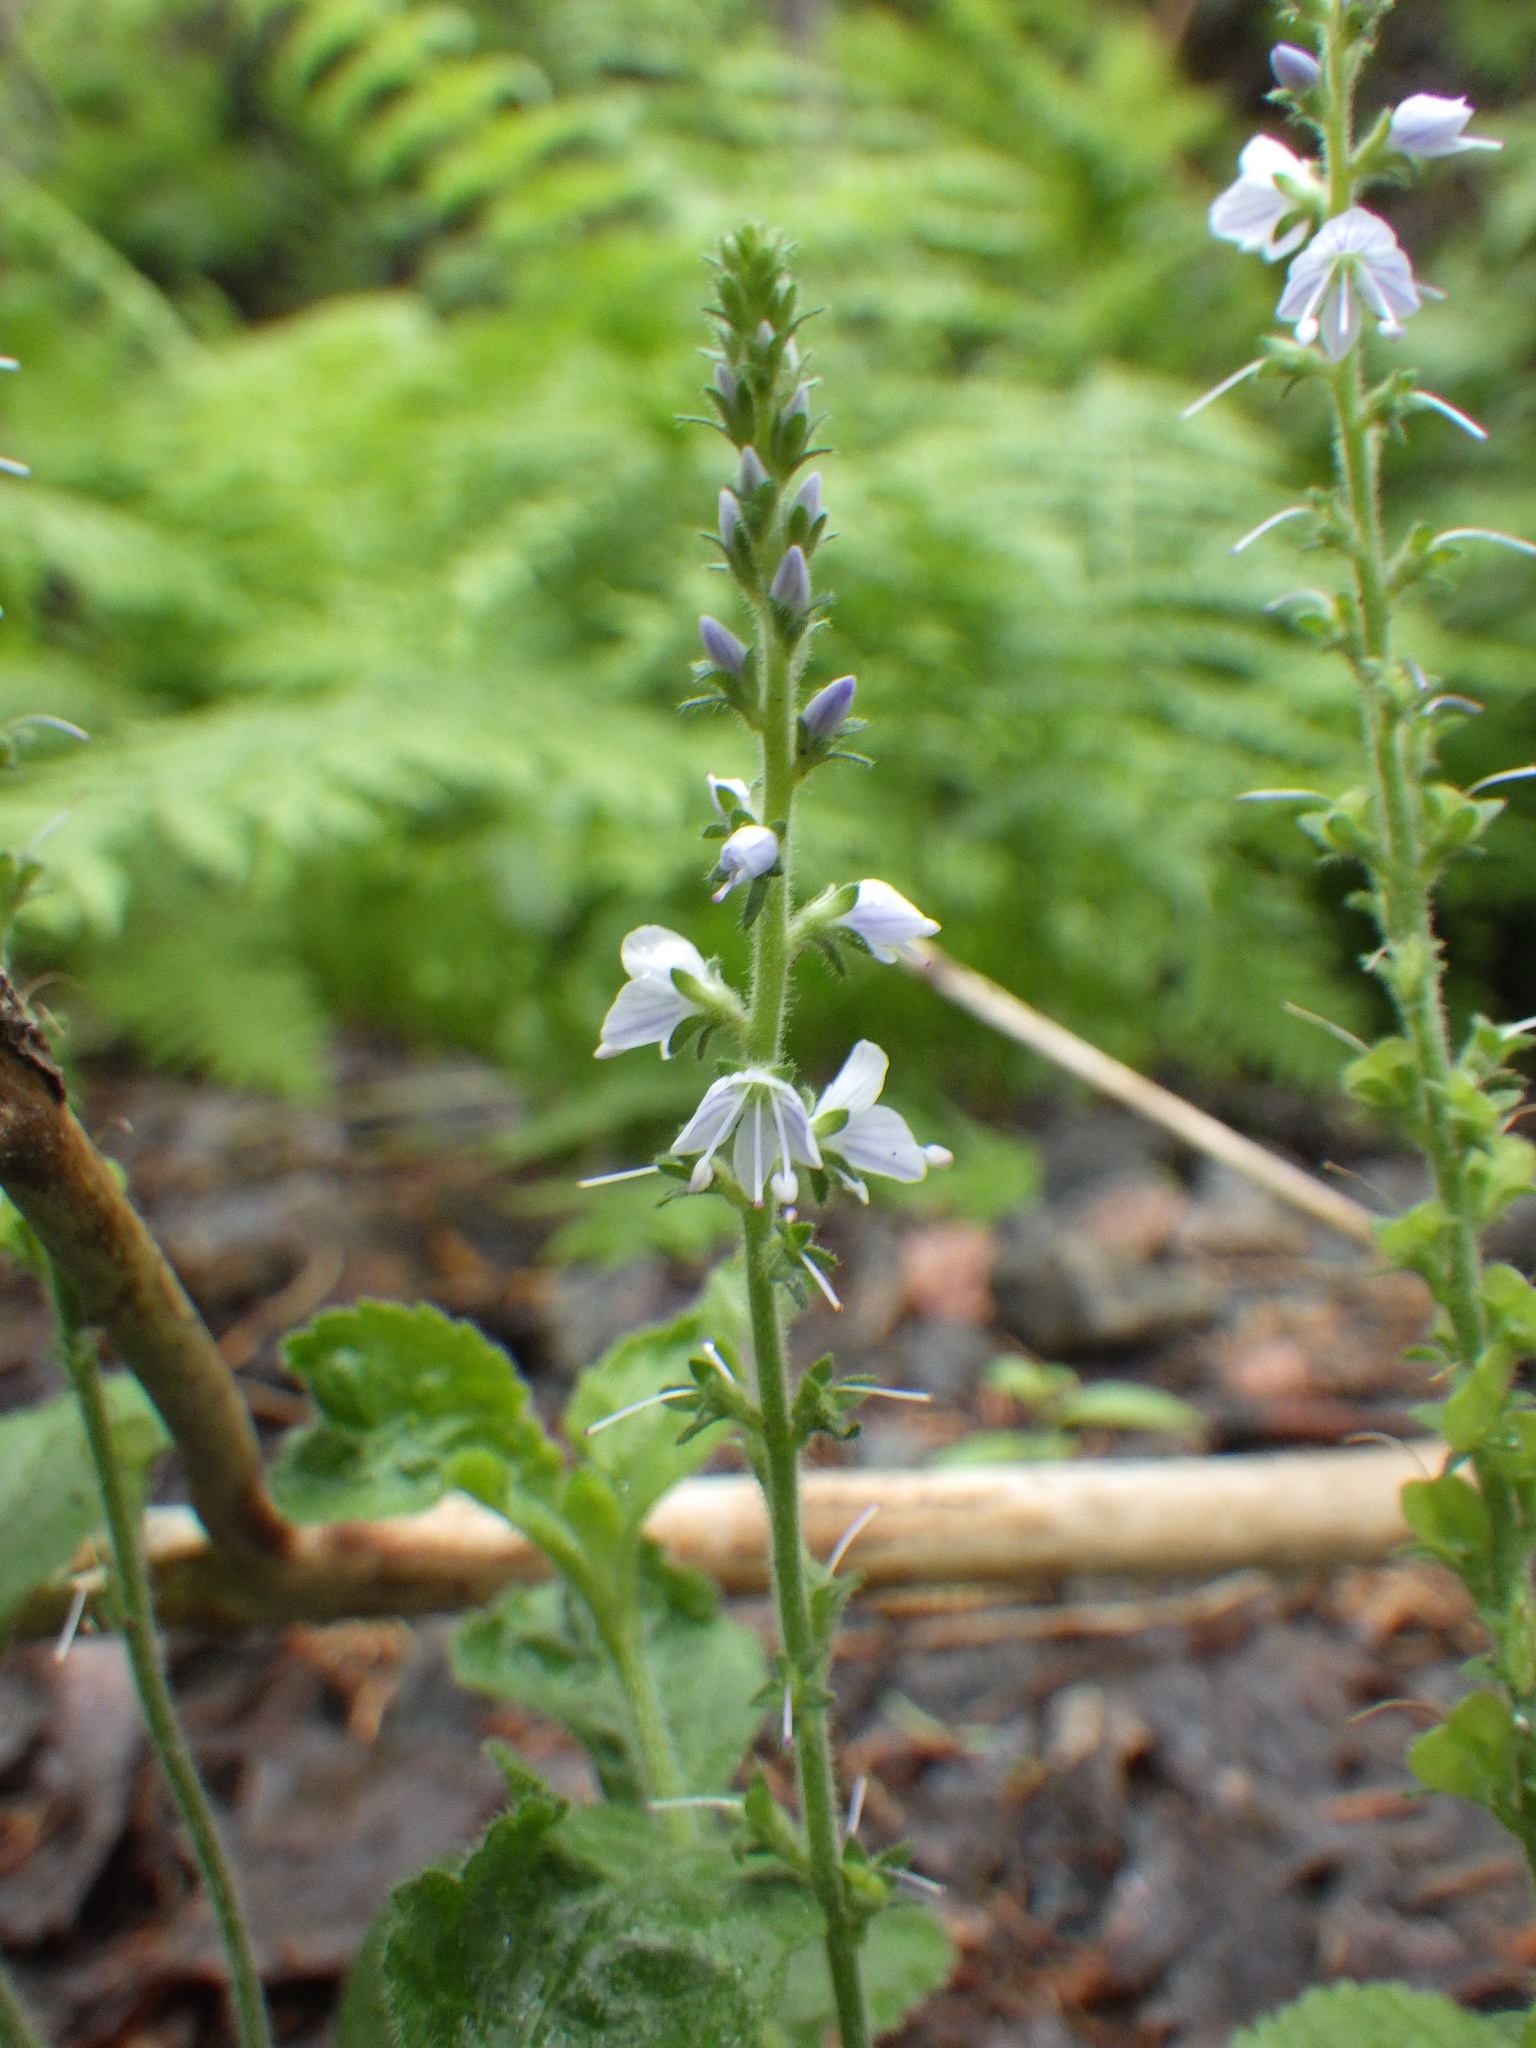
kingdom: Plantae
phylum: Tracheophyta
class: Magnoliopsida
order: Lamiales
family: Plantaginaceae
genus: Veronica
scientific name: Veronica officinalis
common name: Common speedwell
